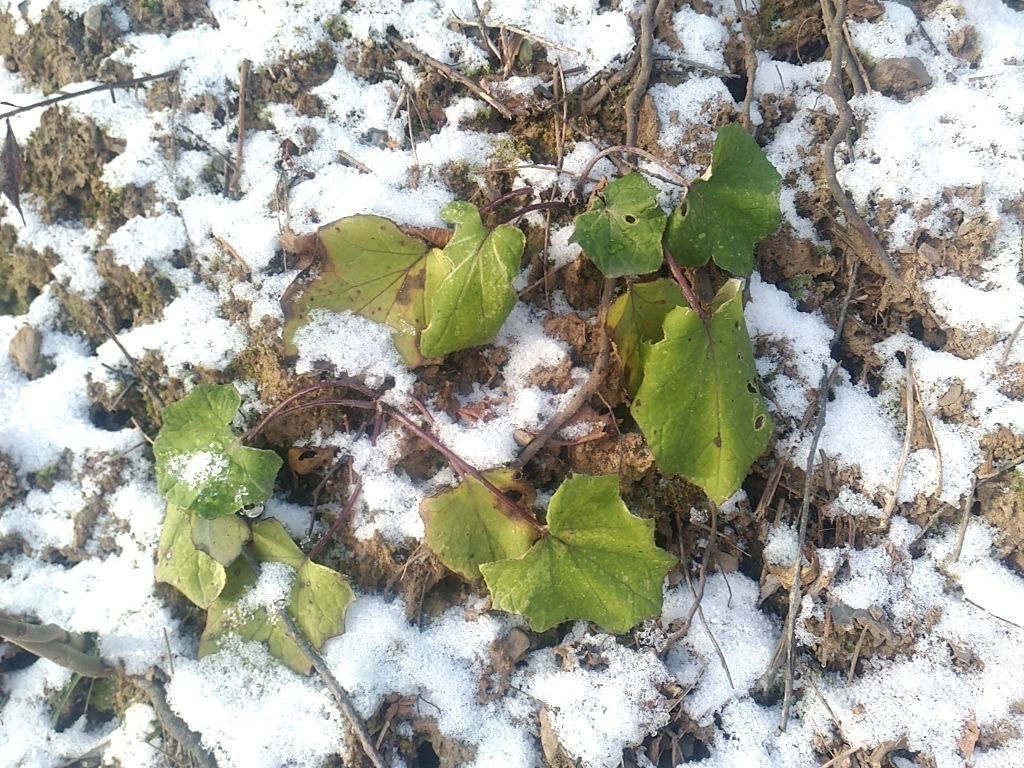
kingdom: Plantae
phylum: Tracheophyta
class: Magnoliopsida
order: Asterales
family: Asteraceae
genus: Tussilago
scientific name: Tussilago farfara
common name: Coltsfoot
